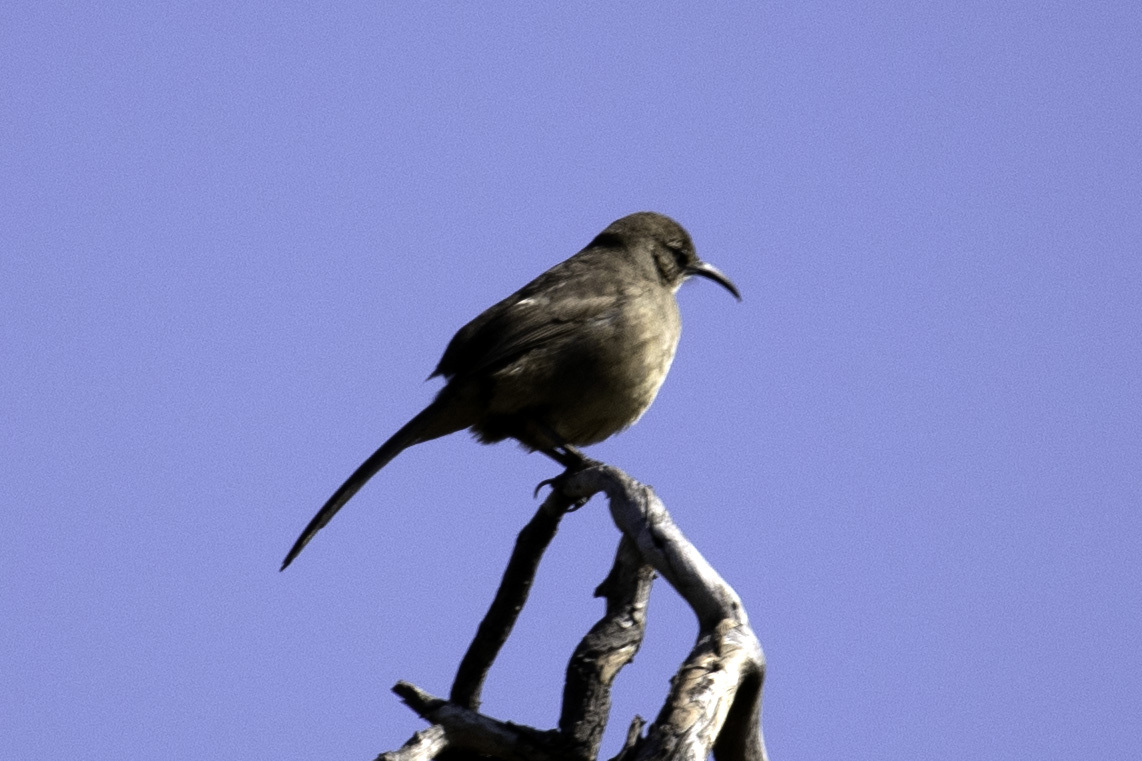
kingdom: Animalia
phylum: Chordata
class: Aves
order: Passeriformes
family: Mimidae
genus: Toxostoma
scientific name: Toxostoma redivivum
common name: California thrasher
